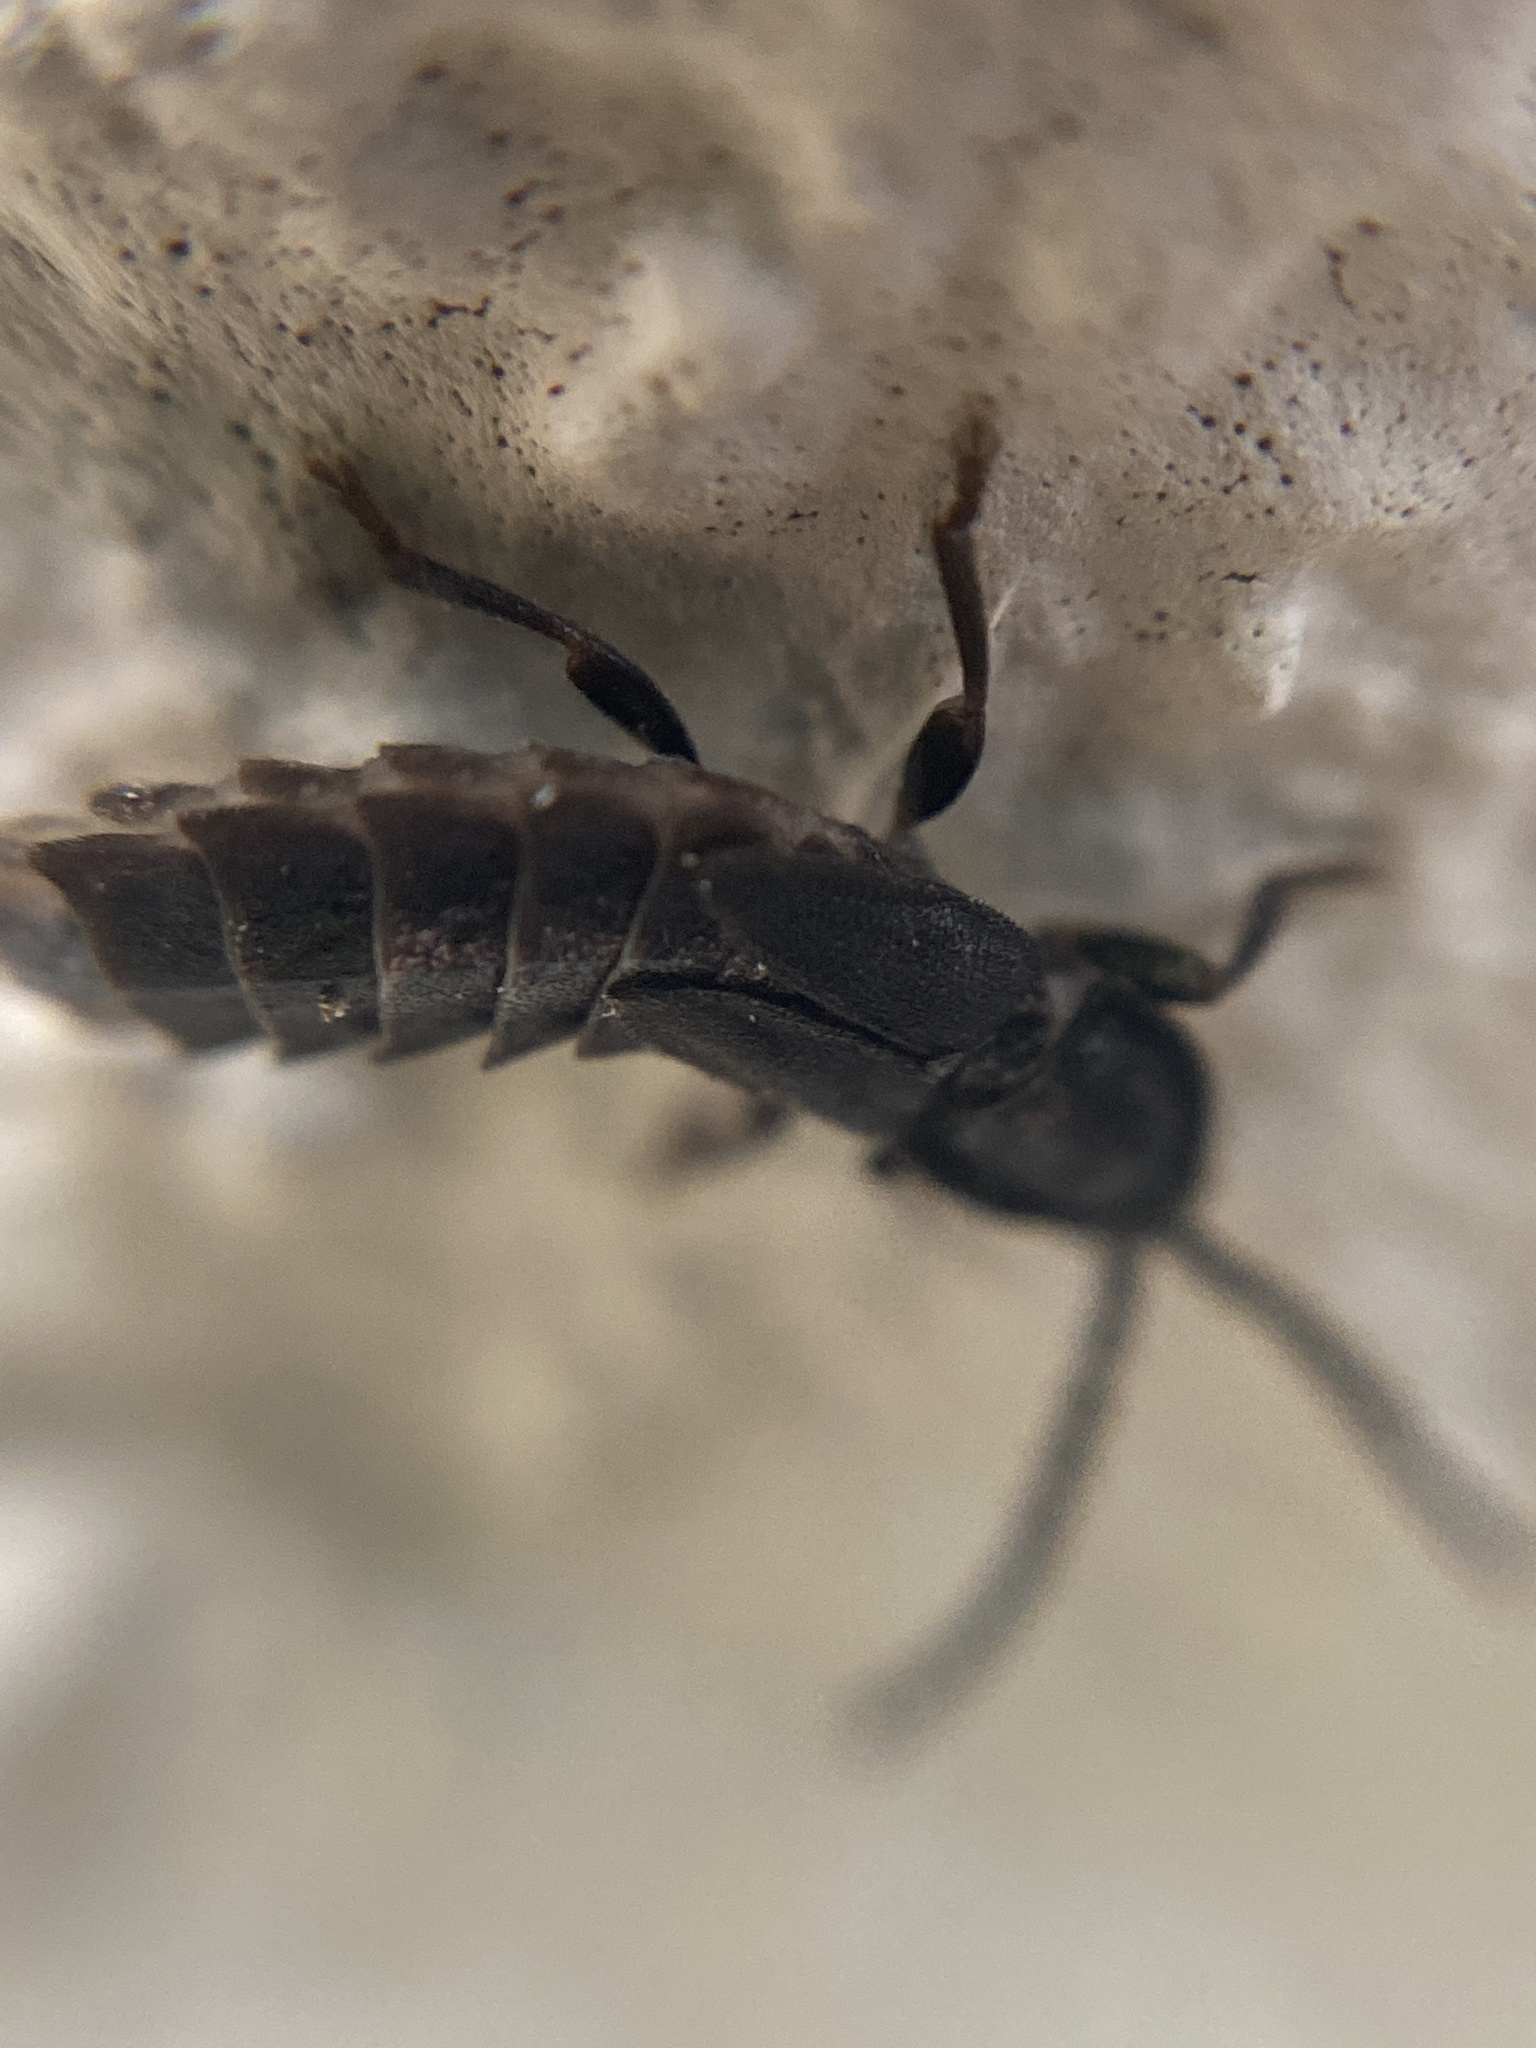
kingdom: Animalia
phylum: Arthropoda
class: Insecta
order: Coleoptera
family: Lampyridae
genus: Phosphaenus
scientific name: Phosphaenus hemipterus
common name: Short-winged firefly
